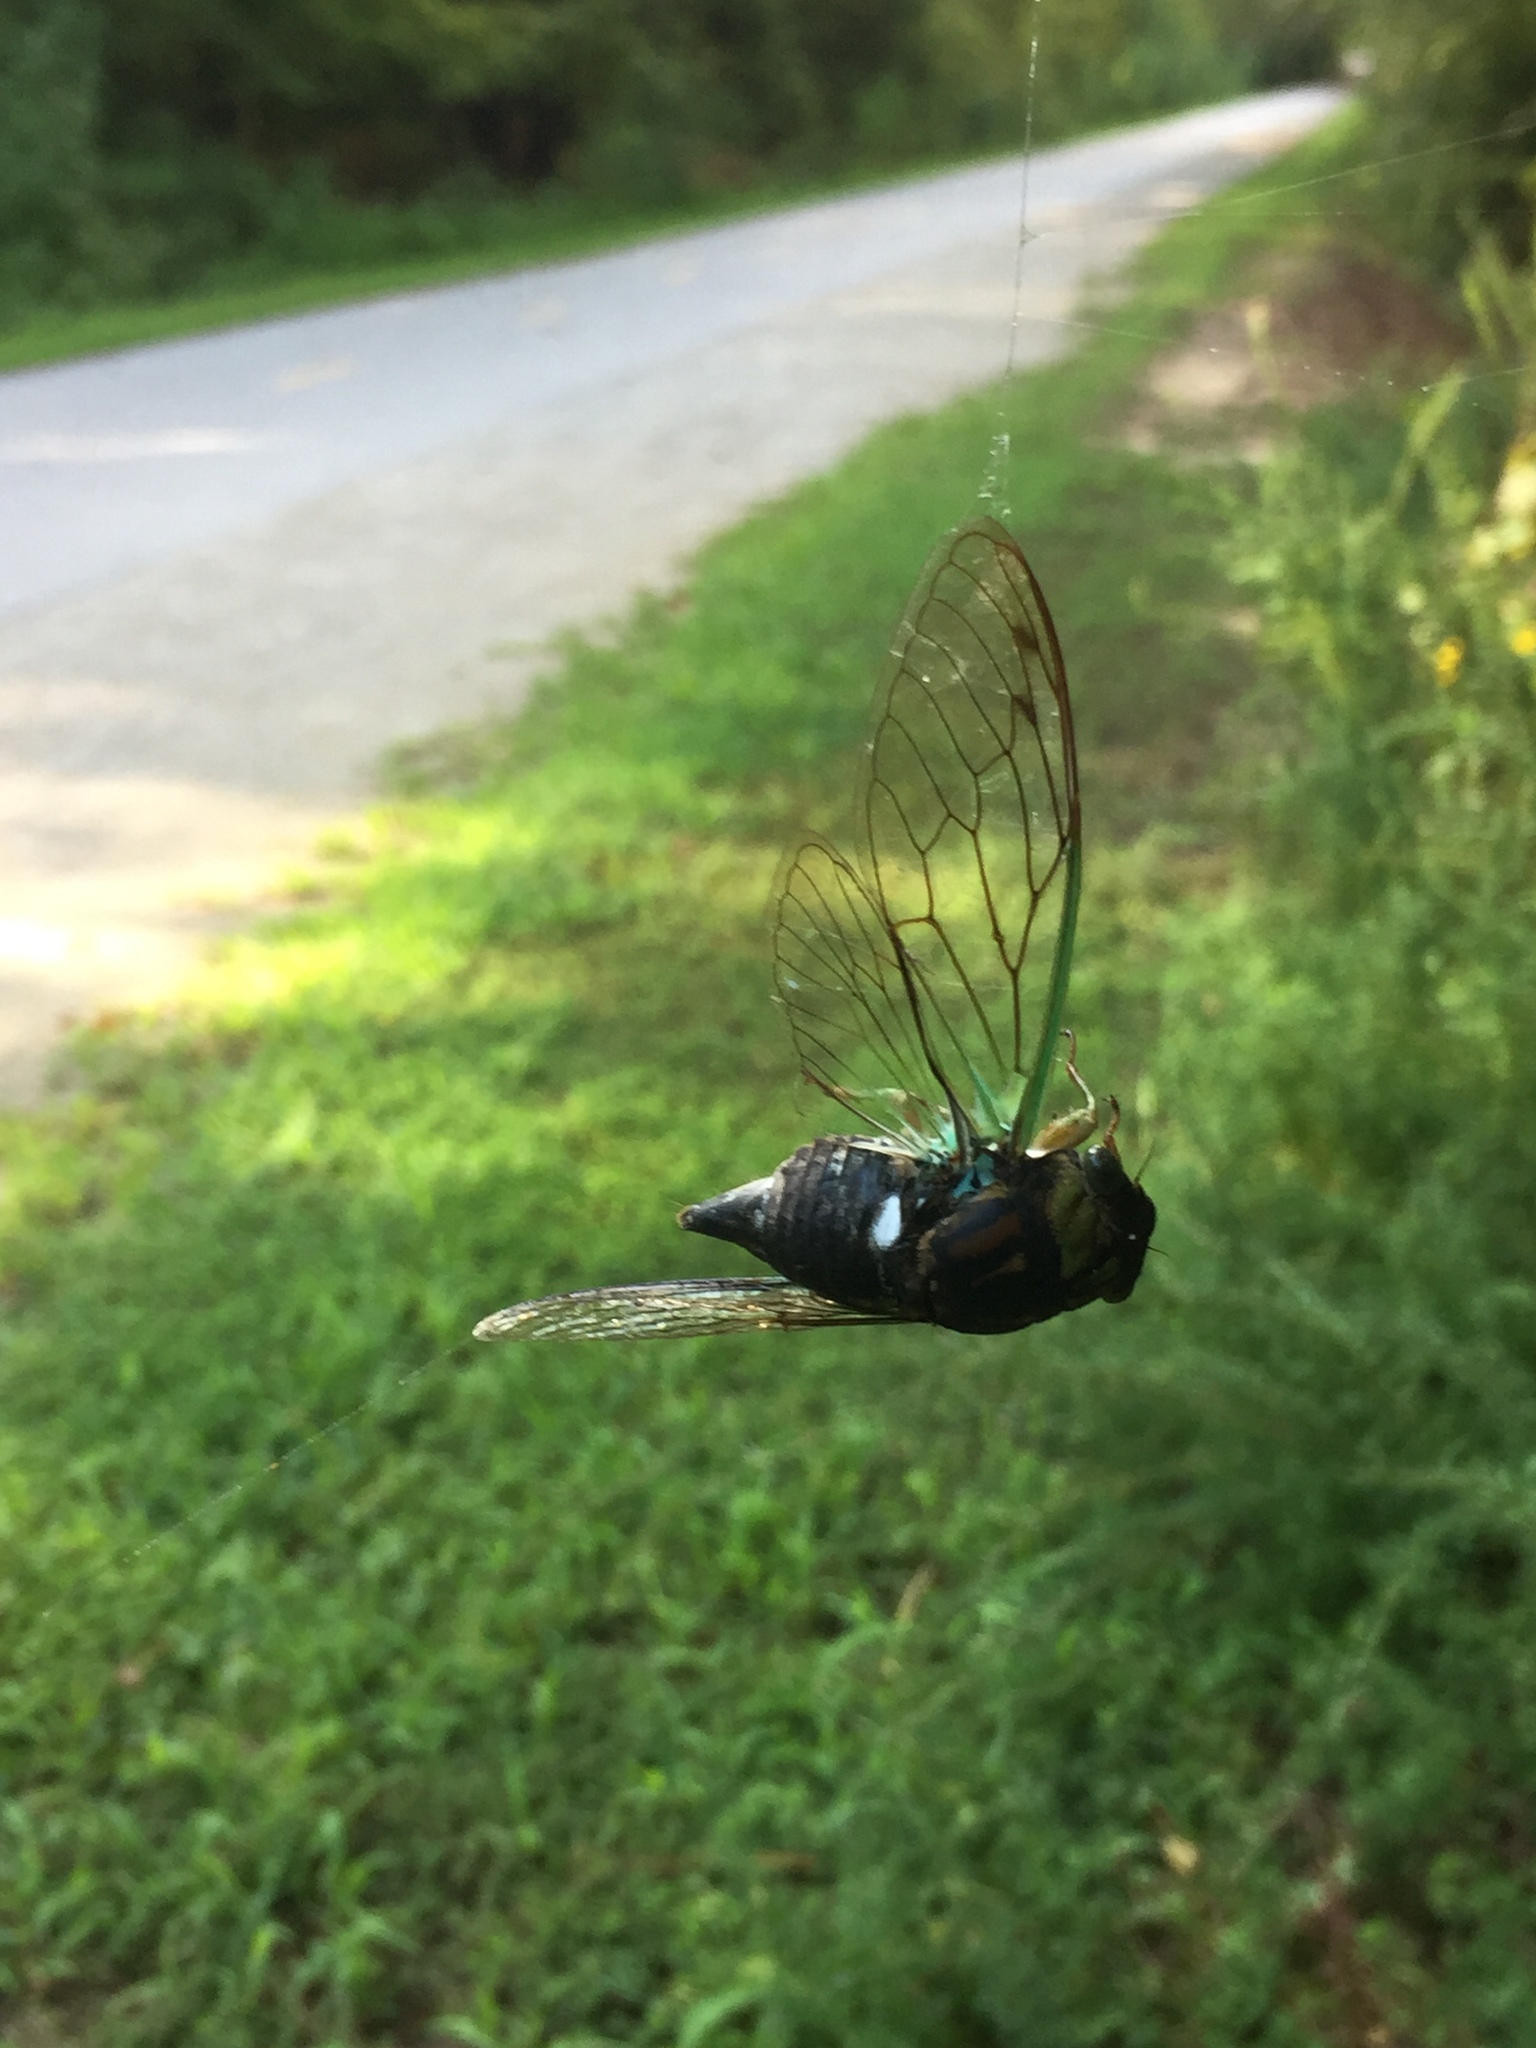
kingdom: Animalia
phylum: Arthropoda
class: Insecta
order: Hemiptera
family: Cicadidae
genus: Neotibicen
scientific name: Neotibicen tibicen
